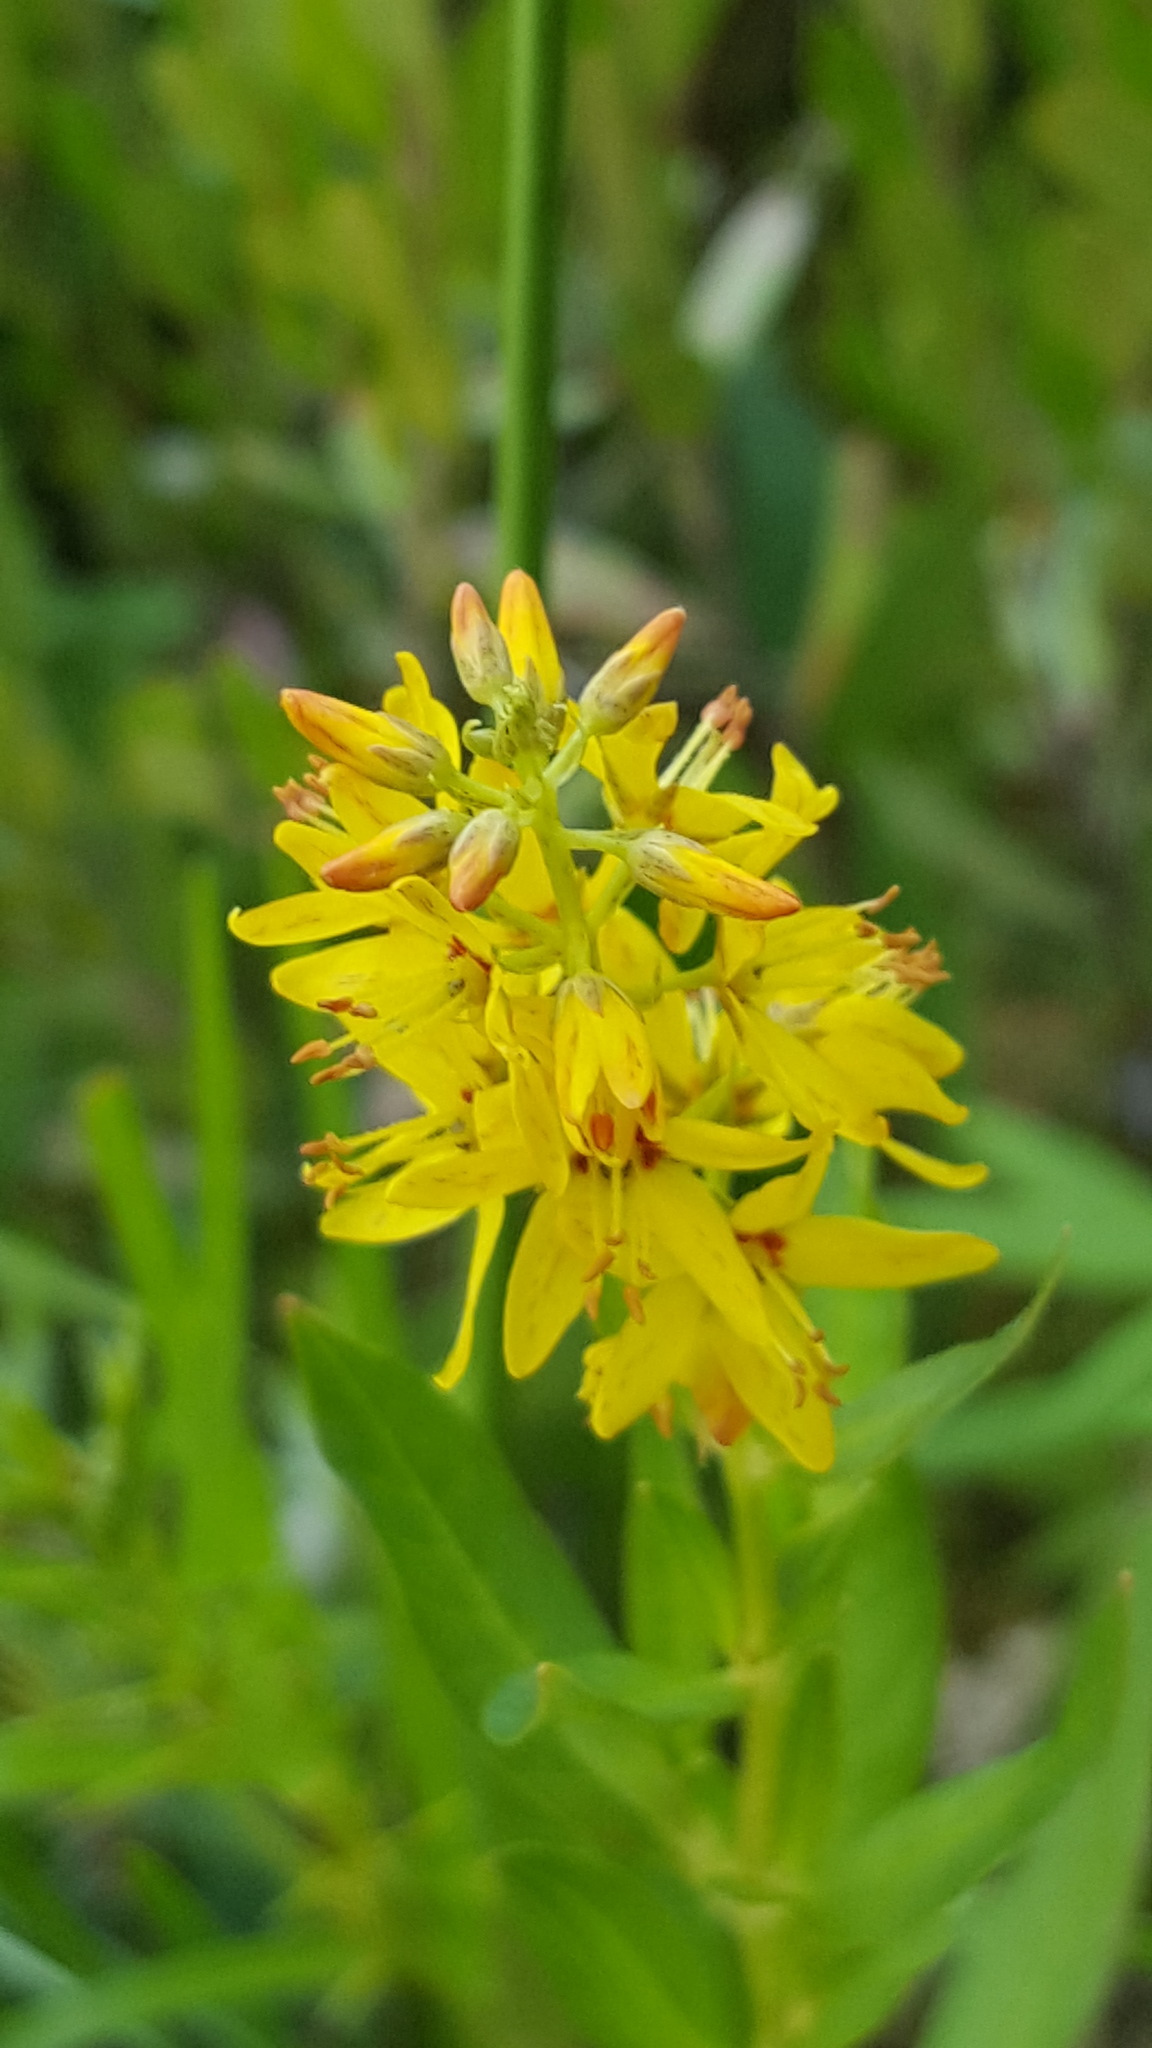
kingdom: Plantae
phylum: Tracheophyta
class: Magnoliopsida
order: Ericales
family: Primulaceae
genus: Lysimachia
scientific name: Lysimachia terrestris
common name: Lake loosestrife
